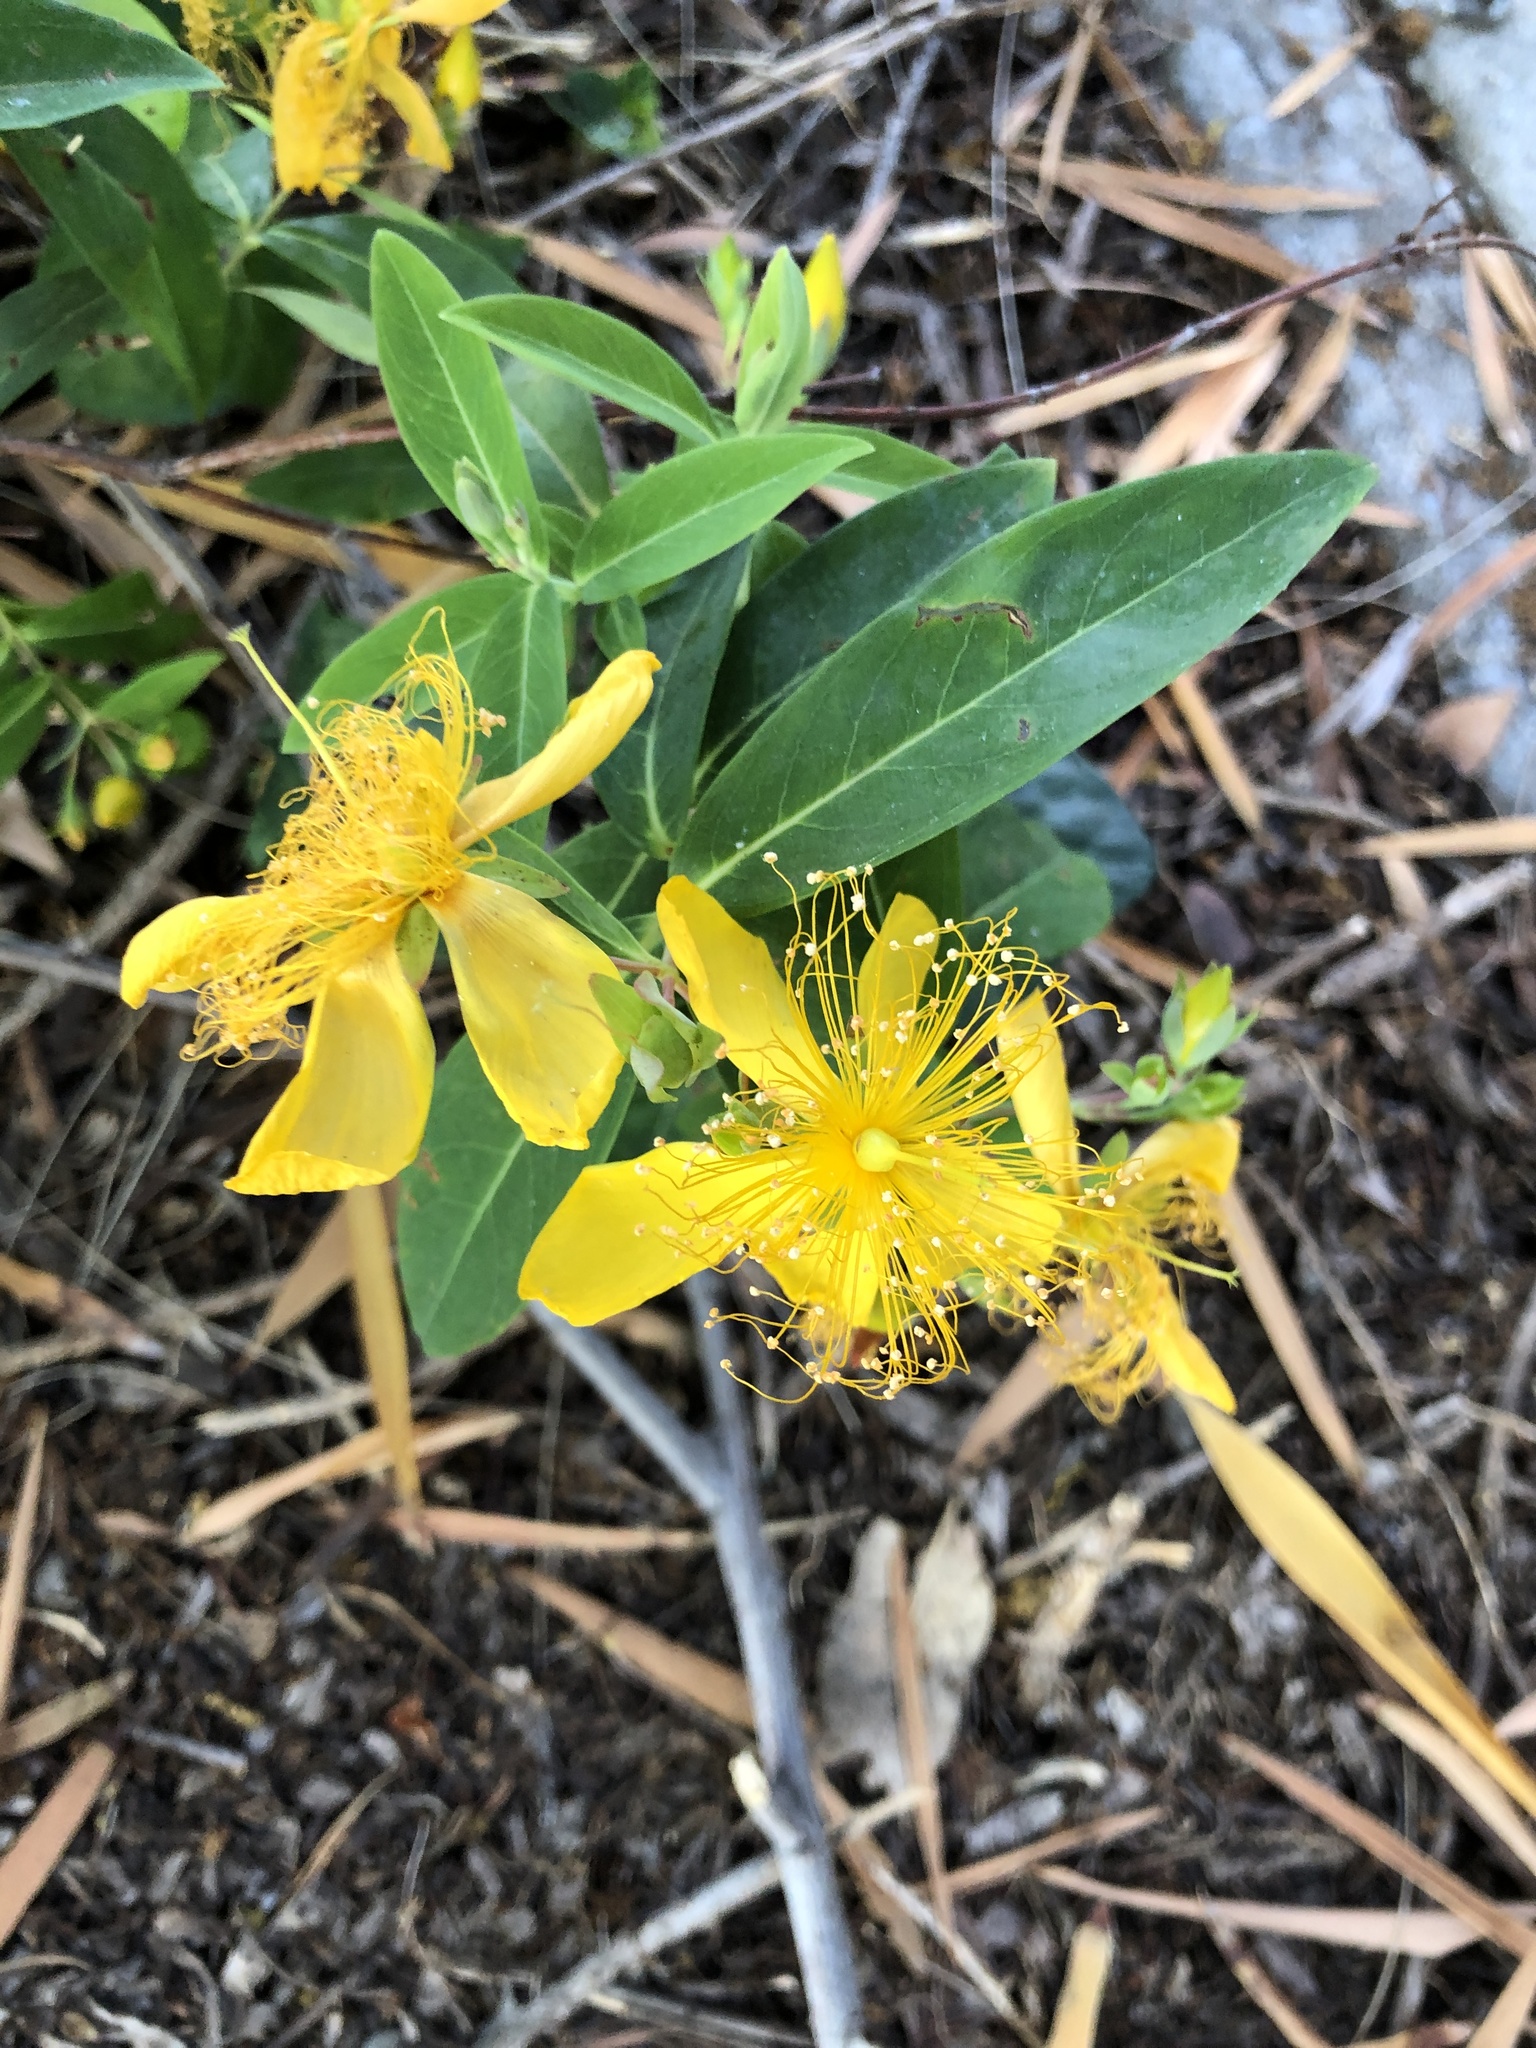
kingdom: Plantae
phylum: Tracheophyta
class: Magnoliopsida
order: Malpighiales
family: Hypericaceae
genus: Hypericum
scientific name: Hypericum calycinum
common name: Rose-of-sharon
